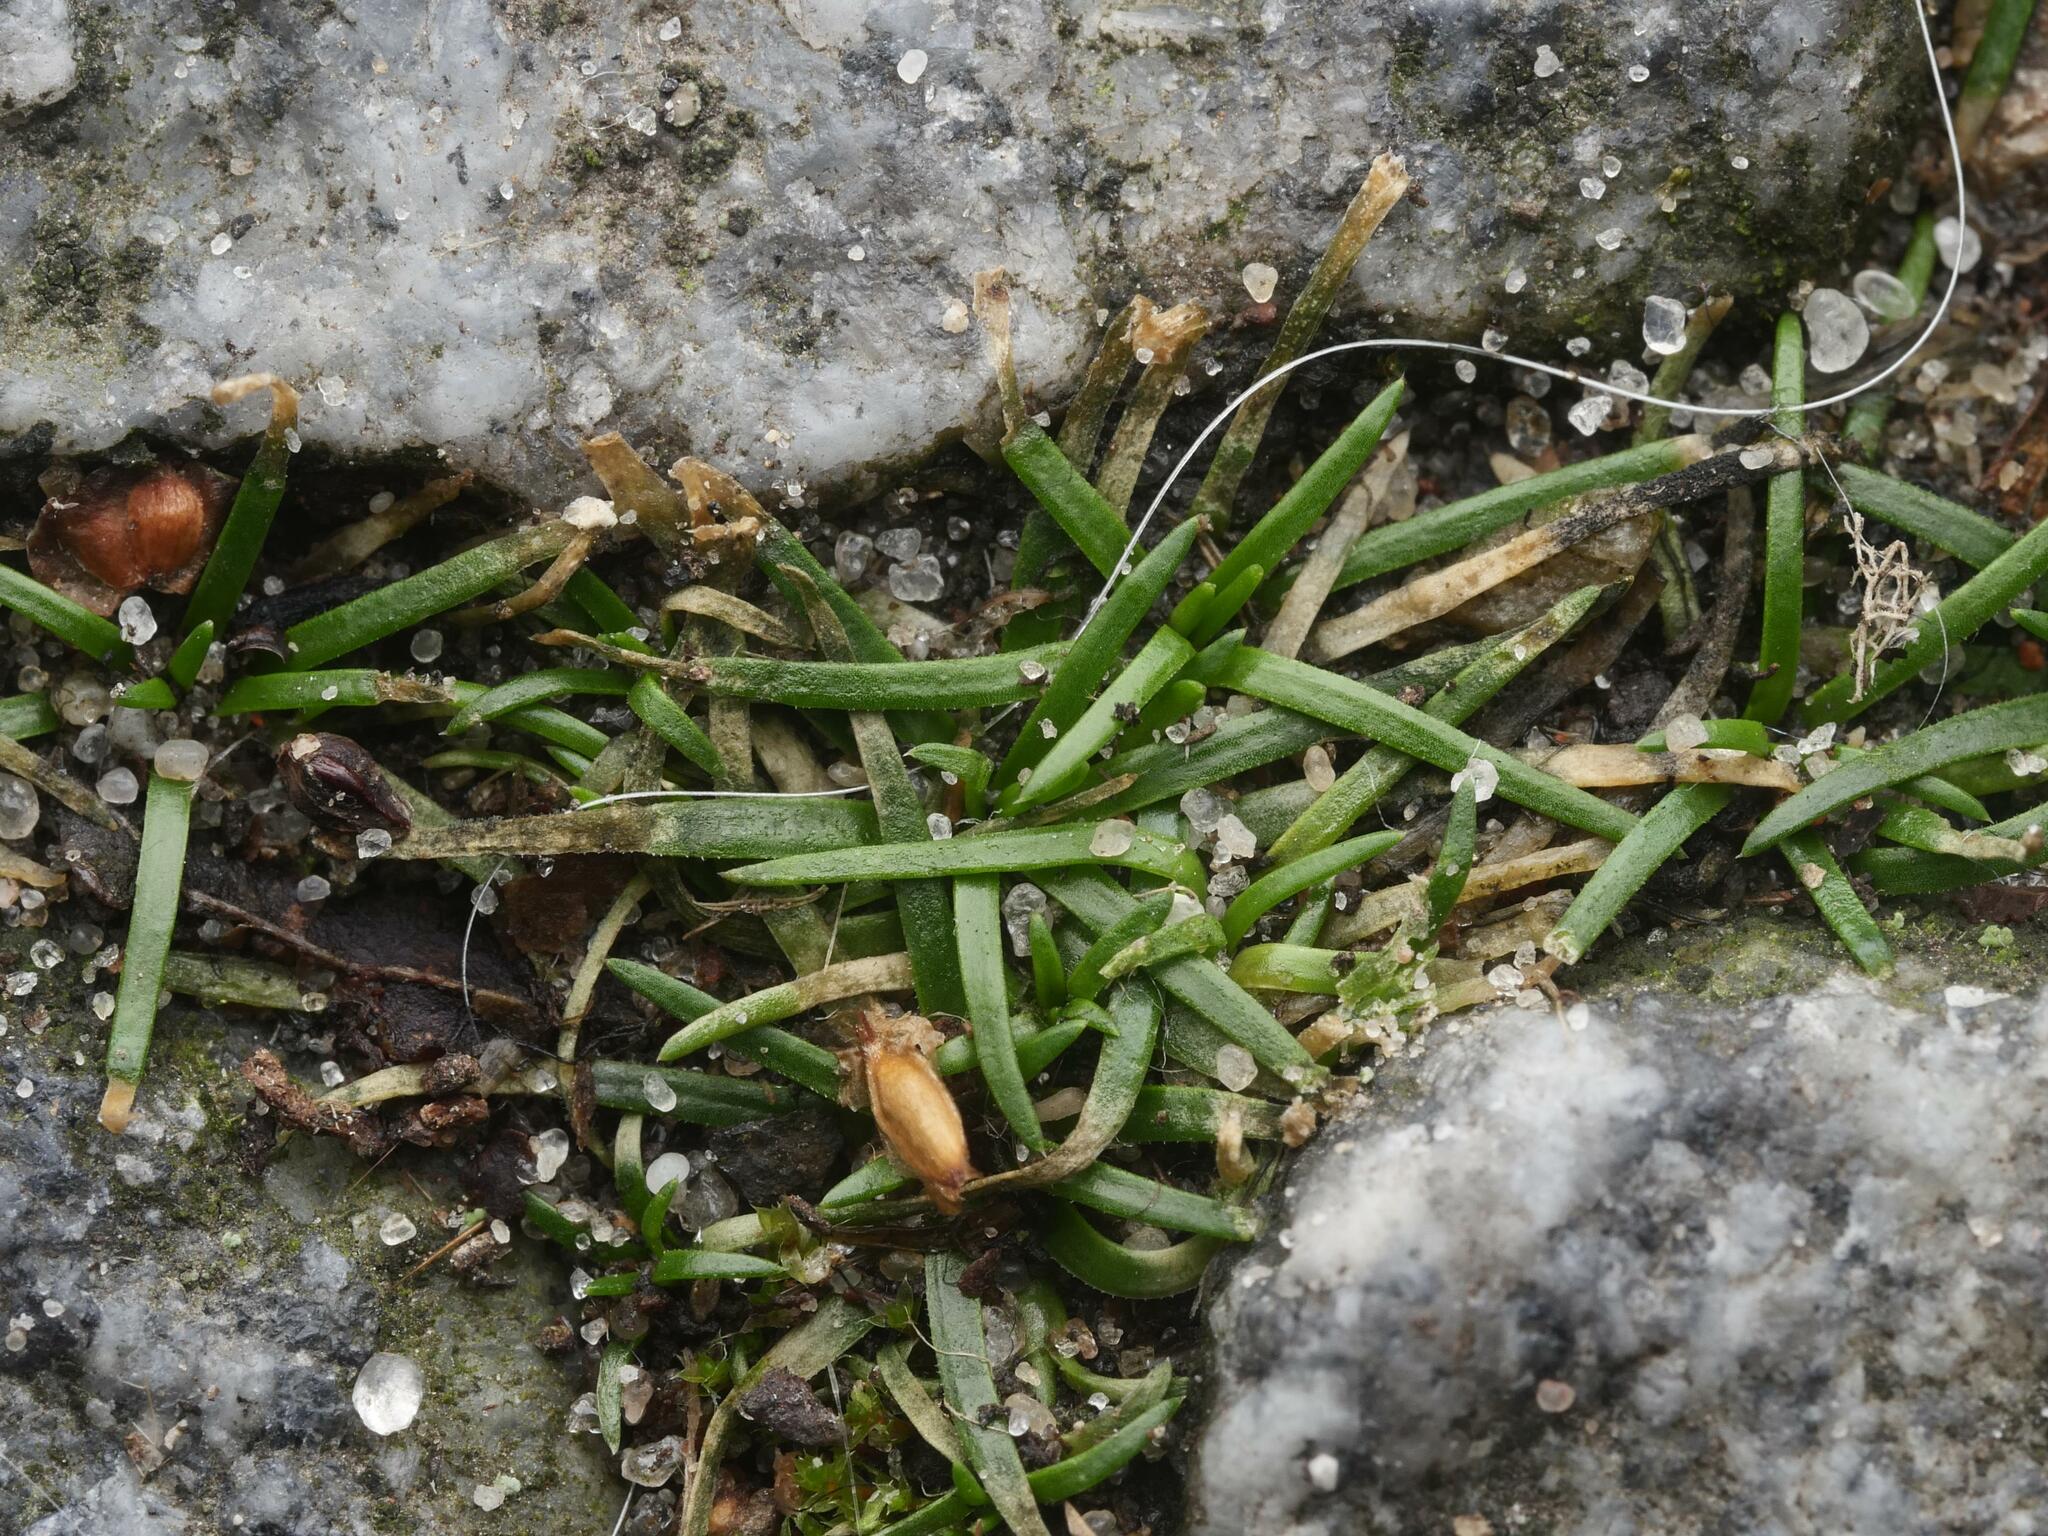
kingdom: Plantae
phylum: Tracheophyta
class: Magnoliopsida
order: Caryophyllales
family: Caryophyllaceae
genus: Sagina
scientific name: Sagina procumbens
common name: Procumbent pearlwort
